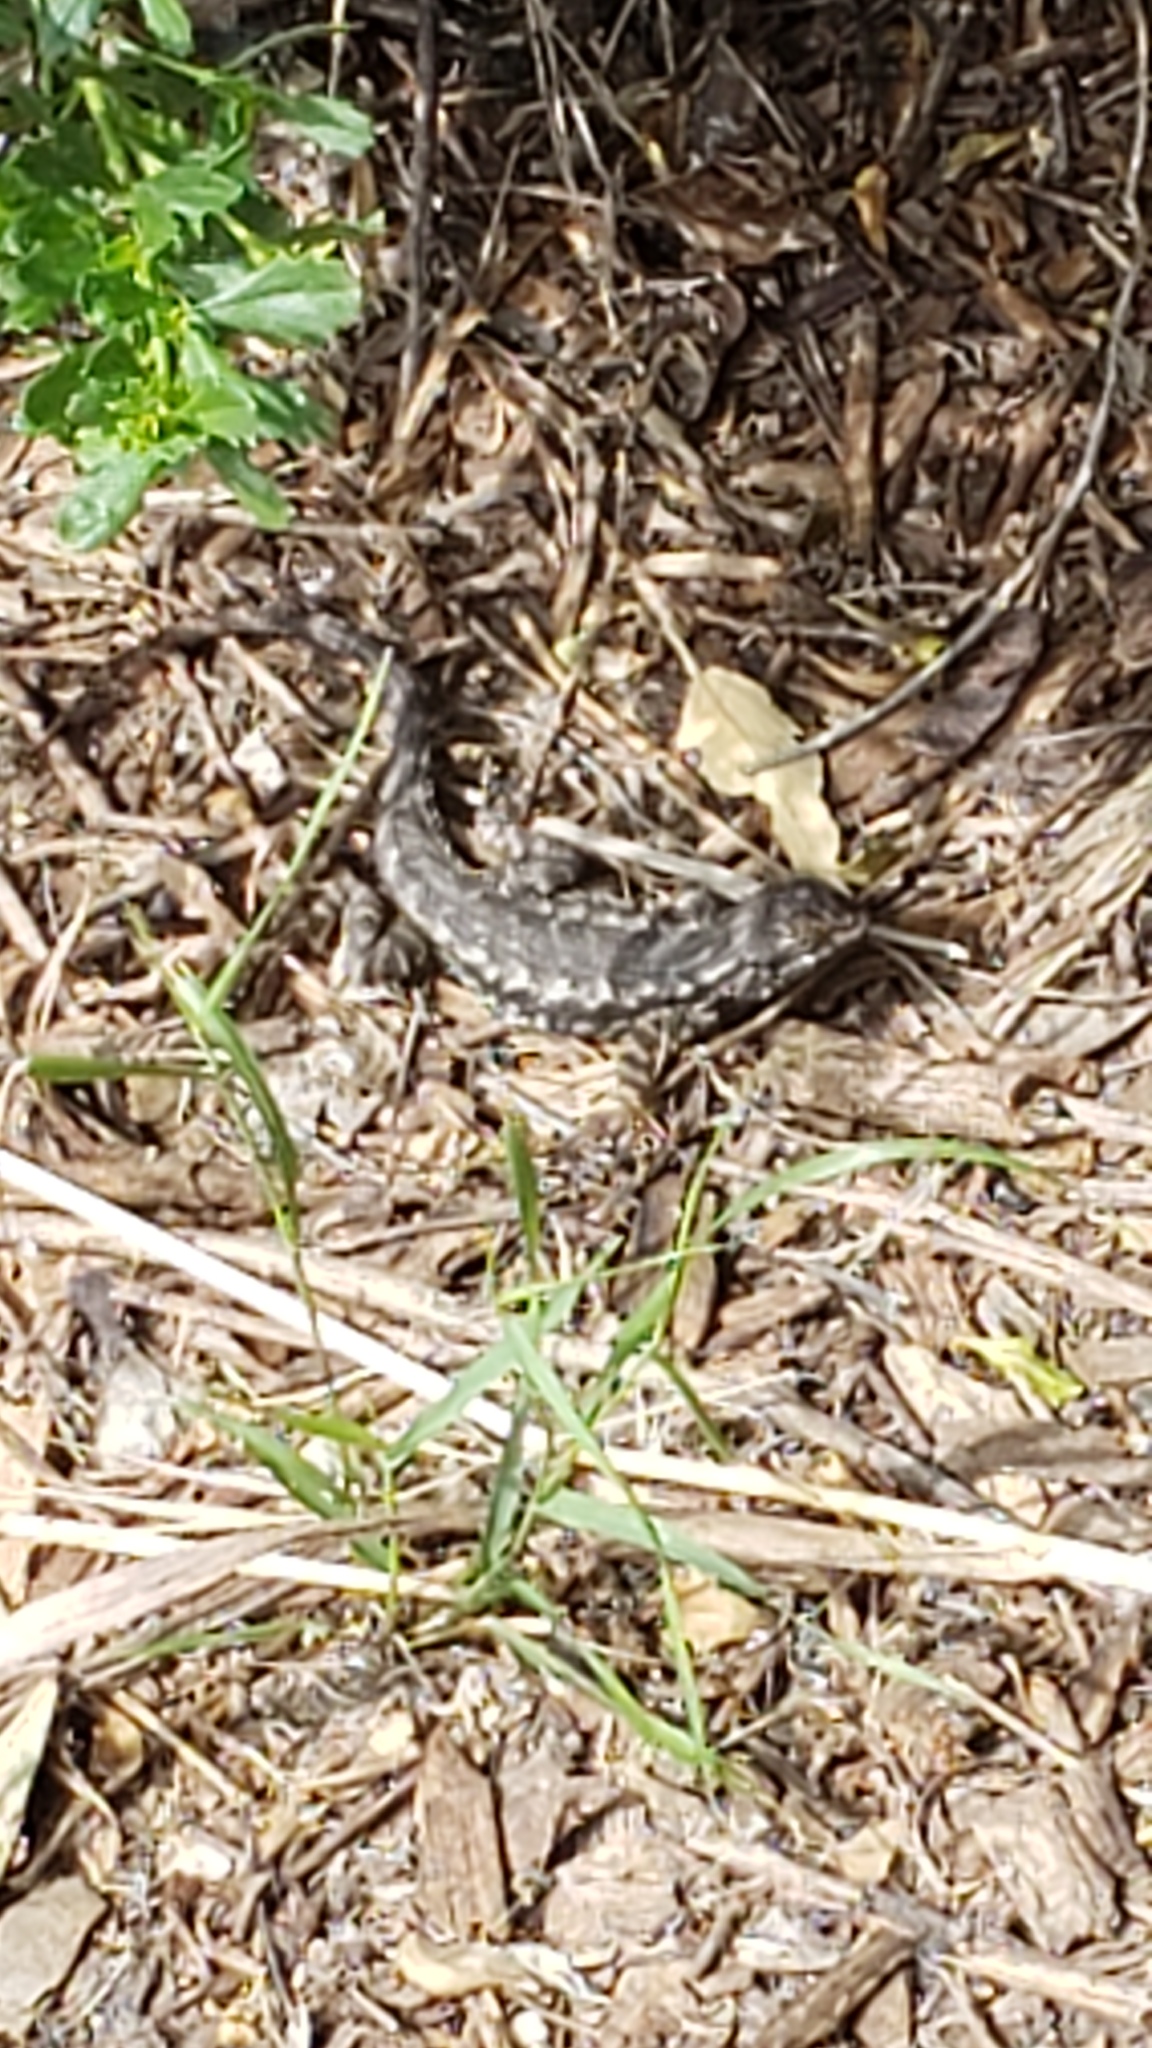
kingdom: Animalia
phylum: Chordata
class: Squamata
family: Phrynosomatidae
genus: Sceloporus
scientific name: Sceloporus occidentalis
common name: Western fence lizard
